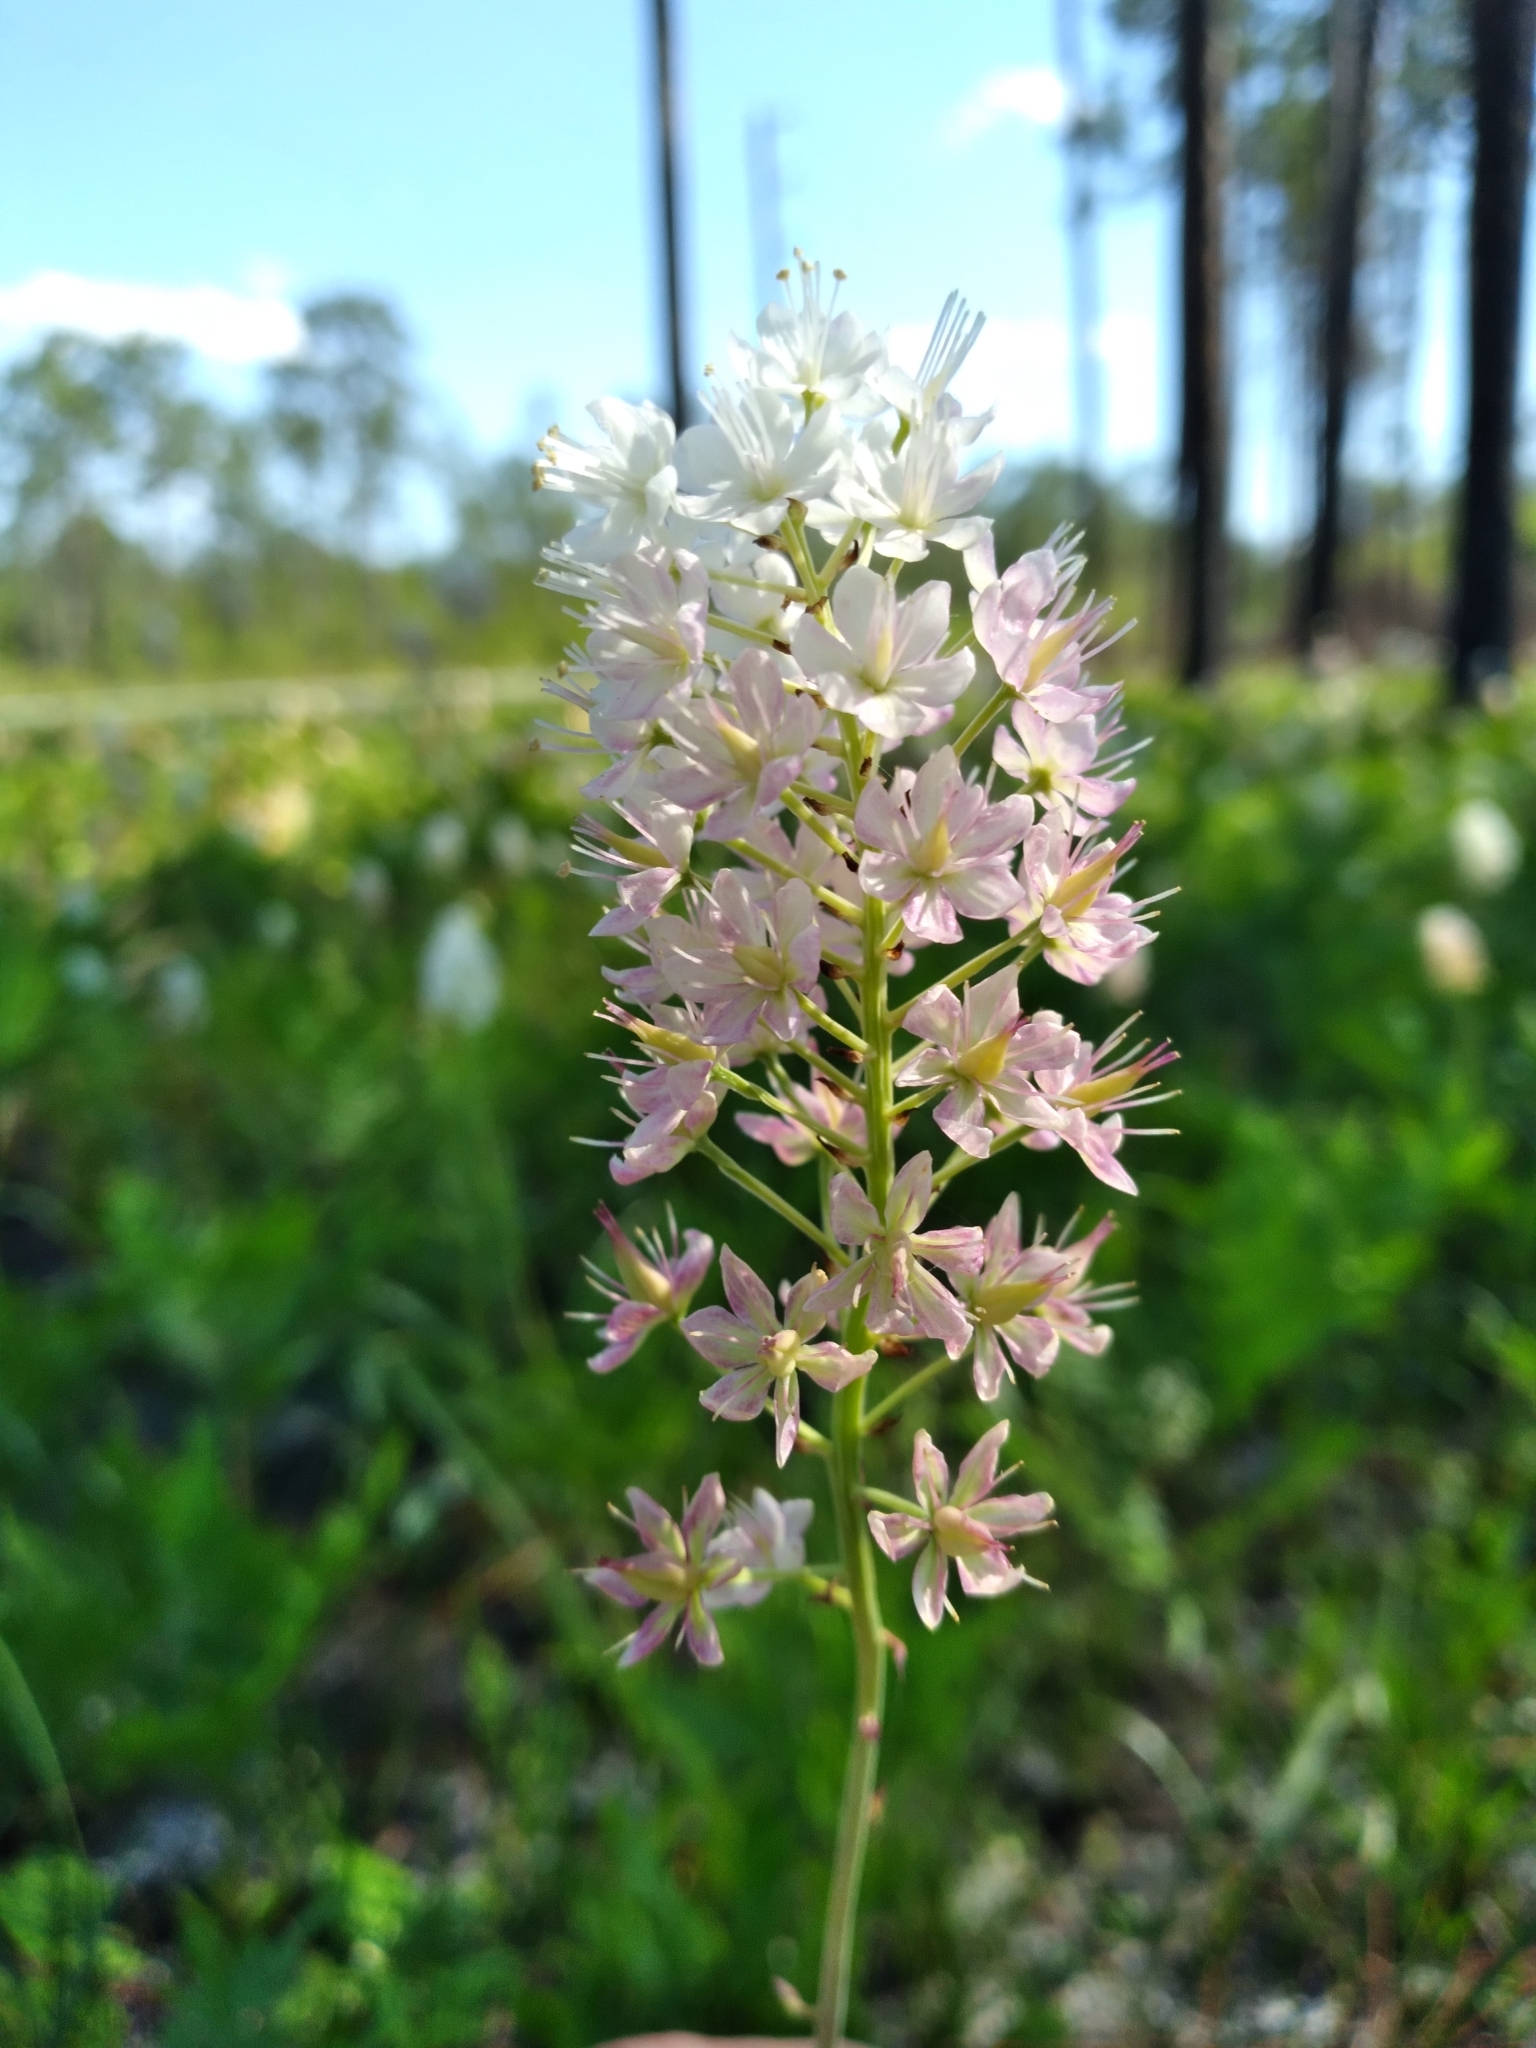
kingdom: Plantae
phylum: Tracheophyta
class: Liliopsida
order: Liliales
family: Melanthiaceae
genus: Stenanthium
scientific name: Stenanthium densum
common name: Crow-poison
